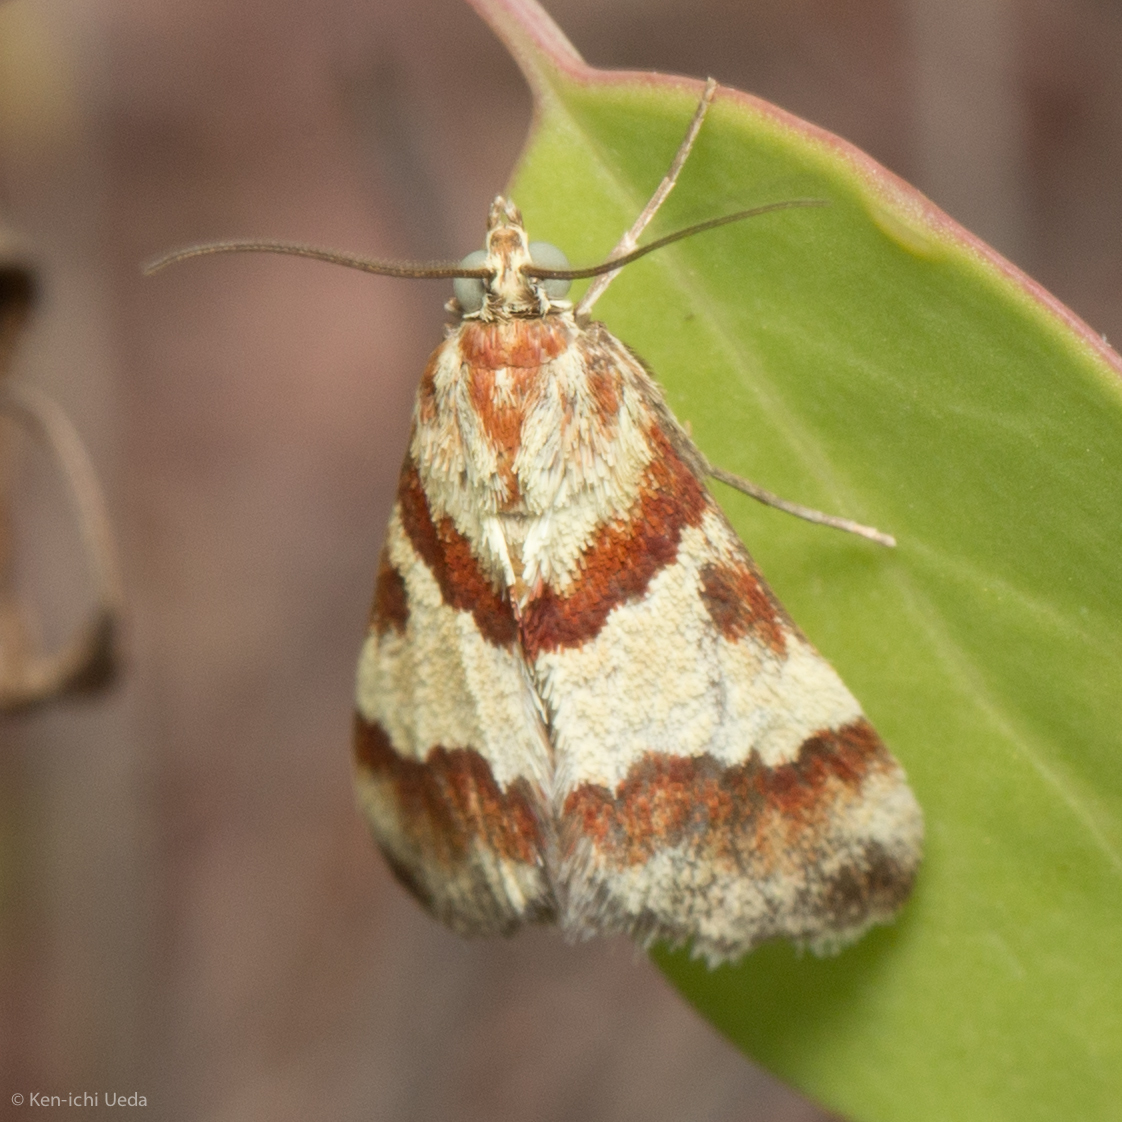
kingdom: Animalia
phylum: Arthropoda
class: Insecta
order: Lepidoptera
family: Crambidae
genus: Noctuelia
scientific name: Noctuelia Mimoschinia rufofascialis
